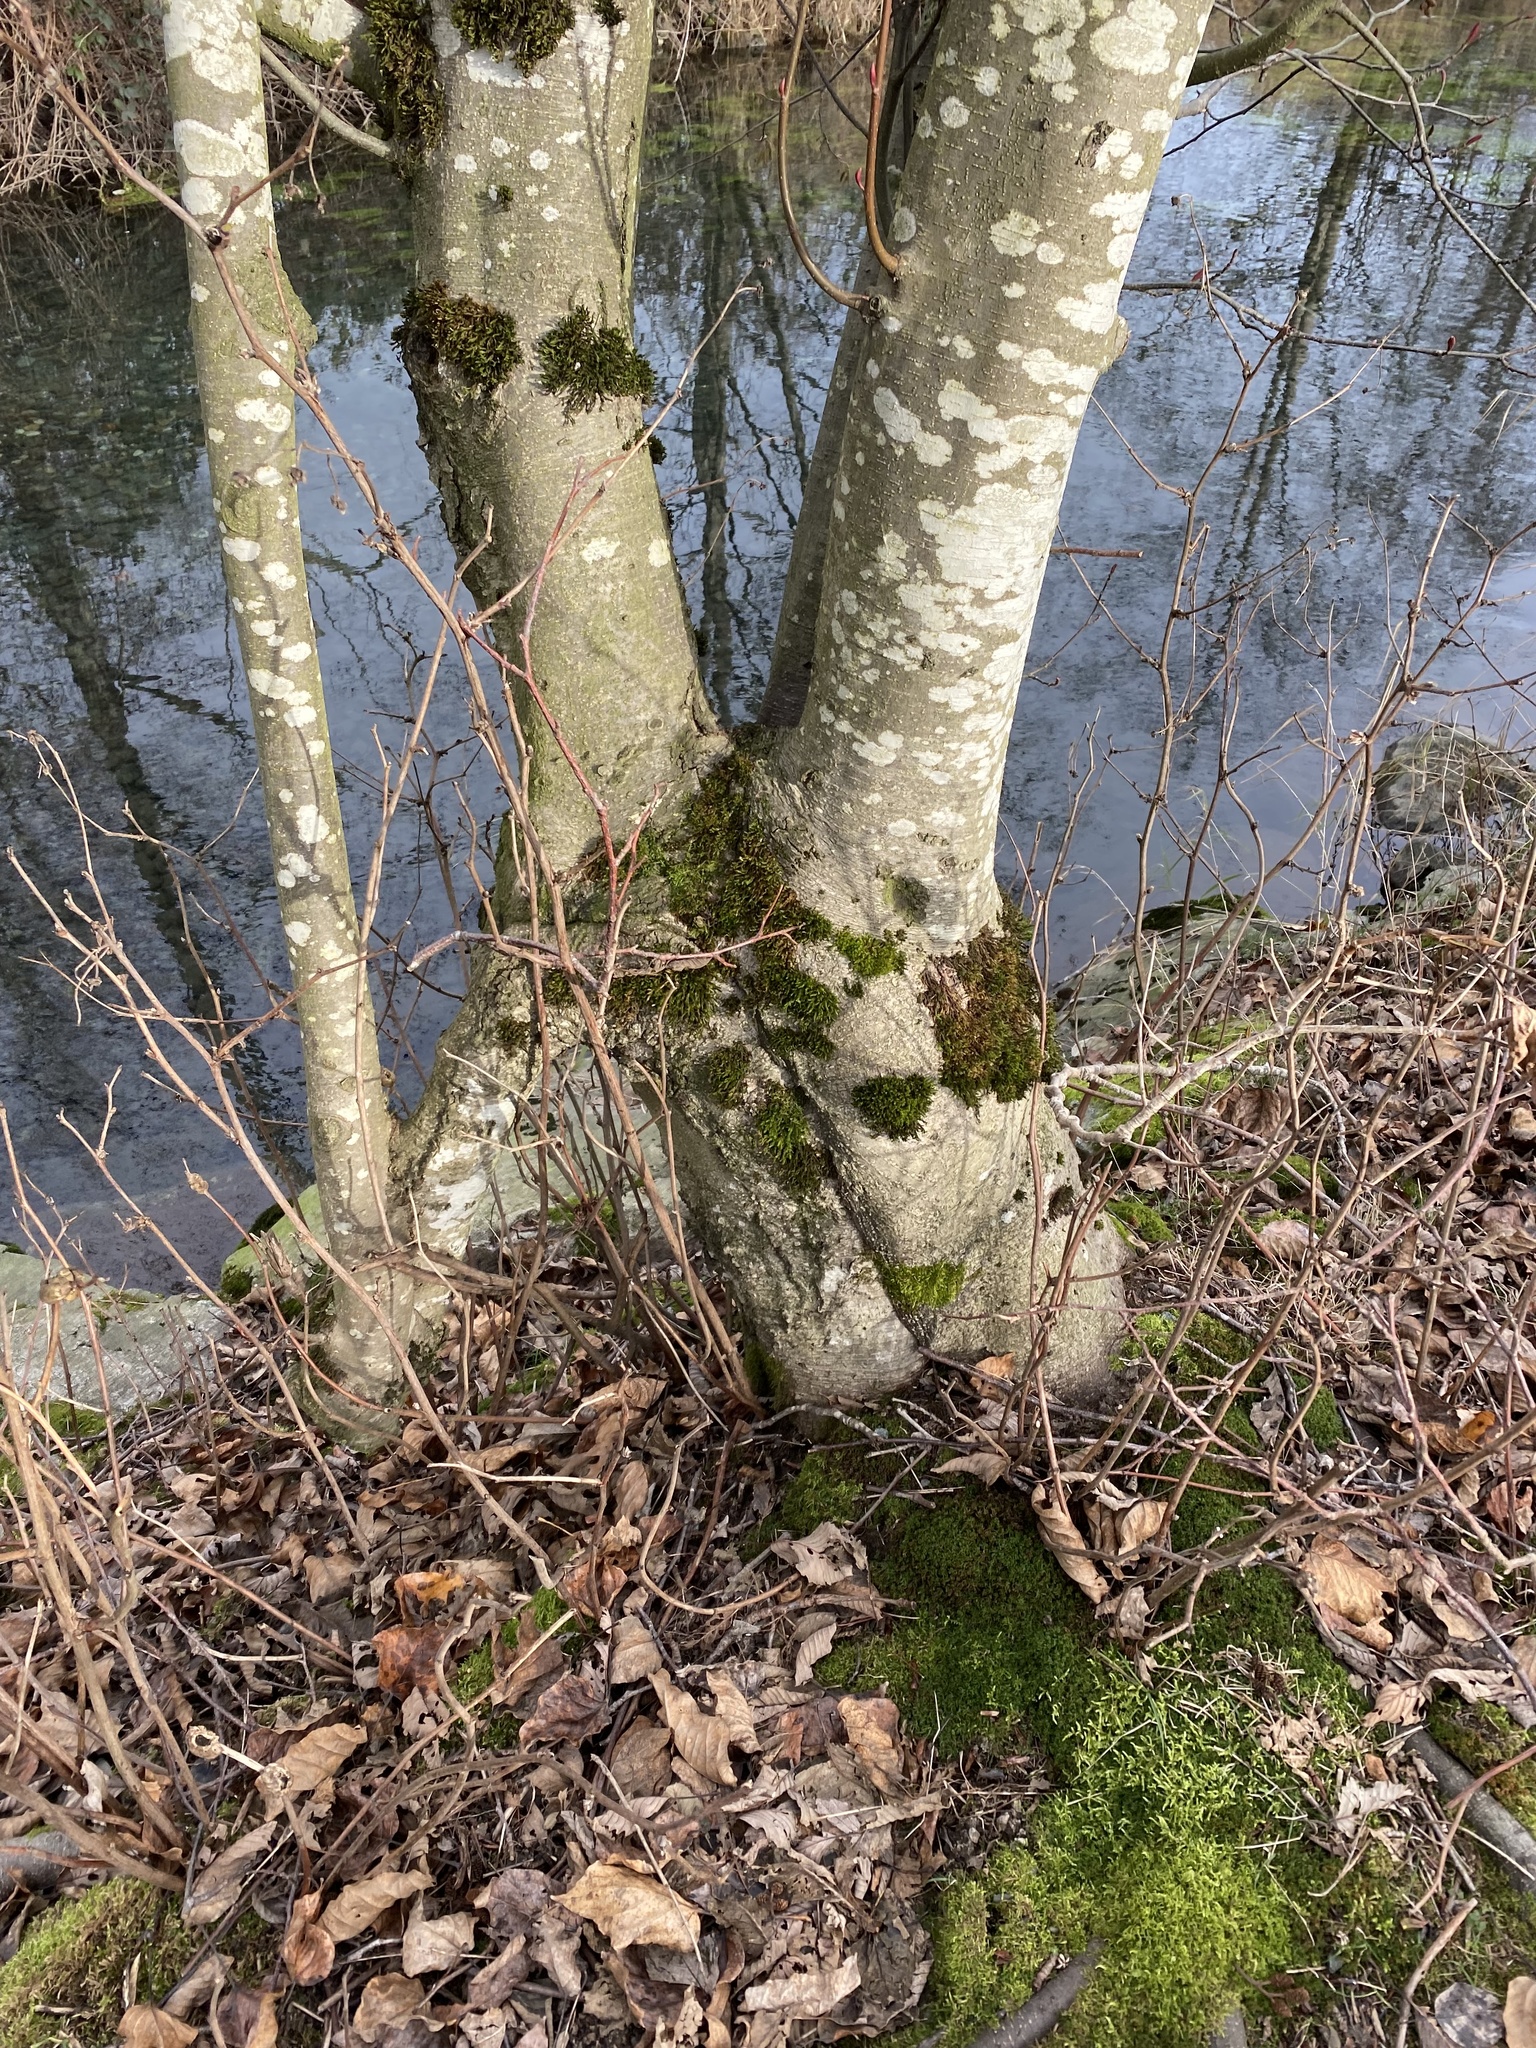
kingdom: Plantae
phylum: Tracheophyta
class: Magnoliopsida
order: Fagales
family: Betulaceae
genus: Alnus
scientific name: Alnus rubra
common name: Red alder
